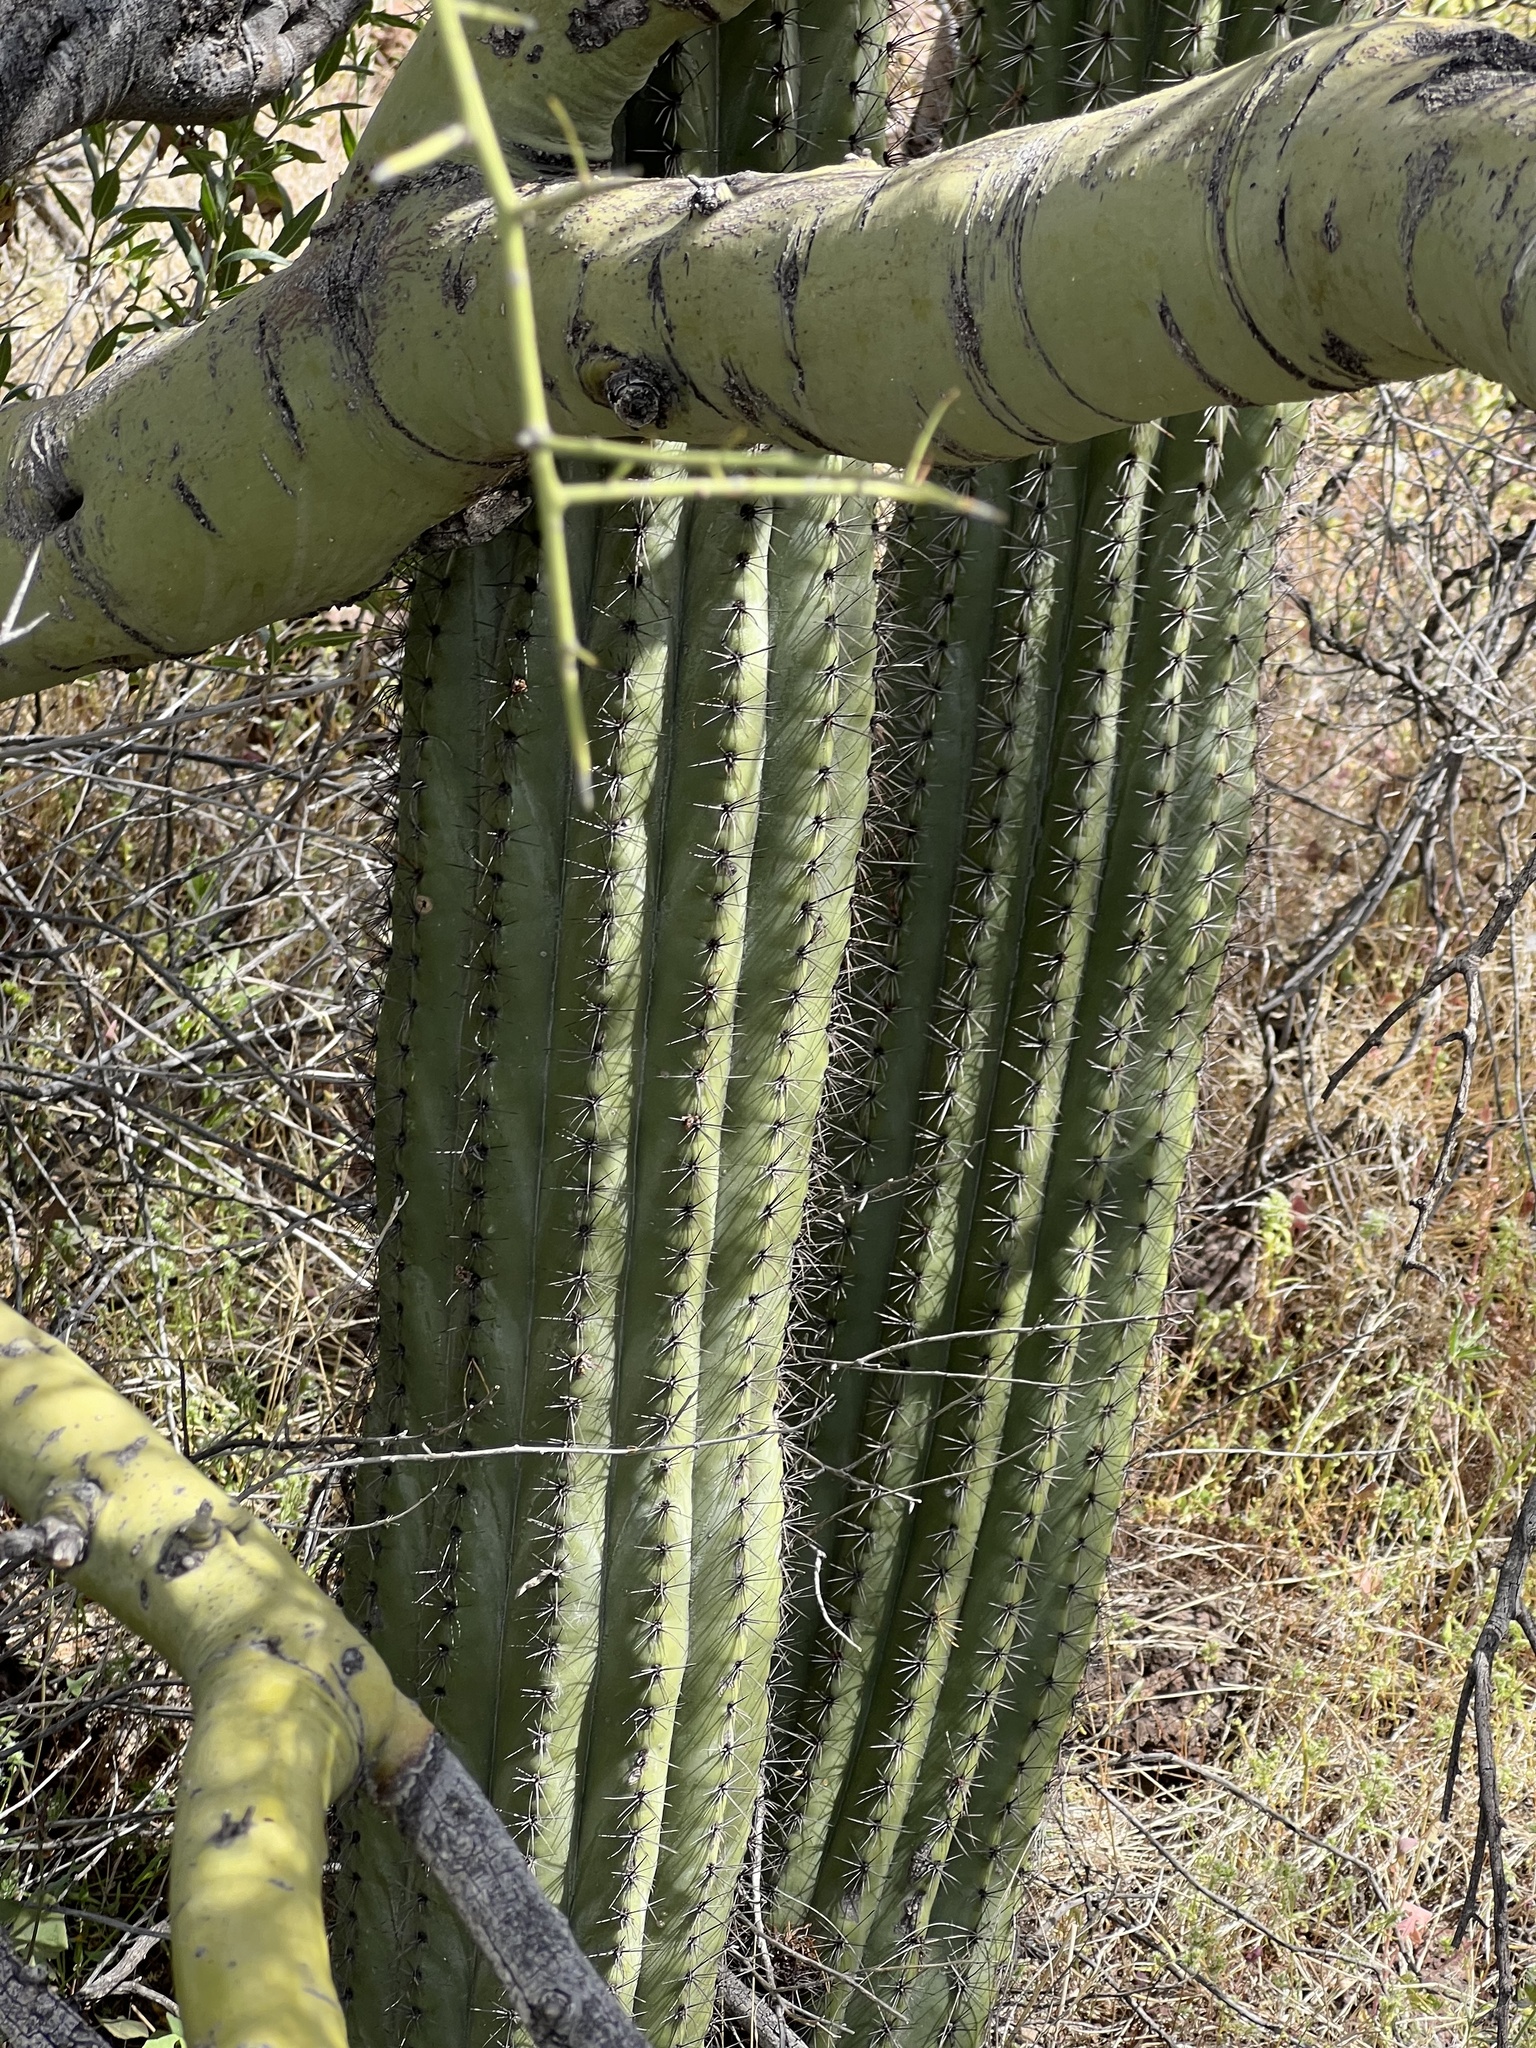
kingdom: Plantae
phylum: Tracheophyta
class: Magnoliopsida
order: Caryophyllales
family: Cactaceae
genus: Stenocereus
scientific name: Stenocereus thurberi
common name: Organ pipe cactus
